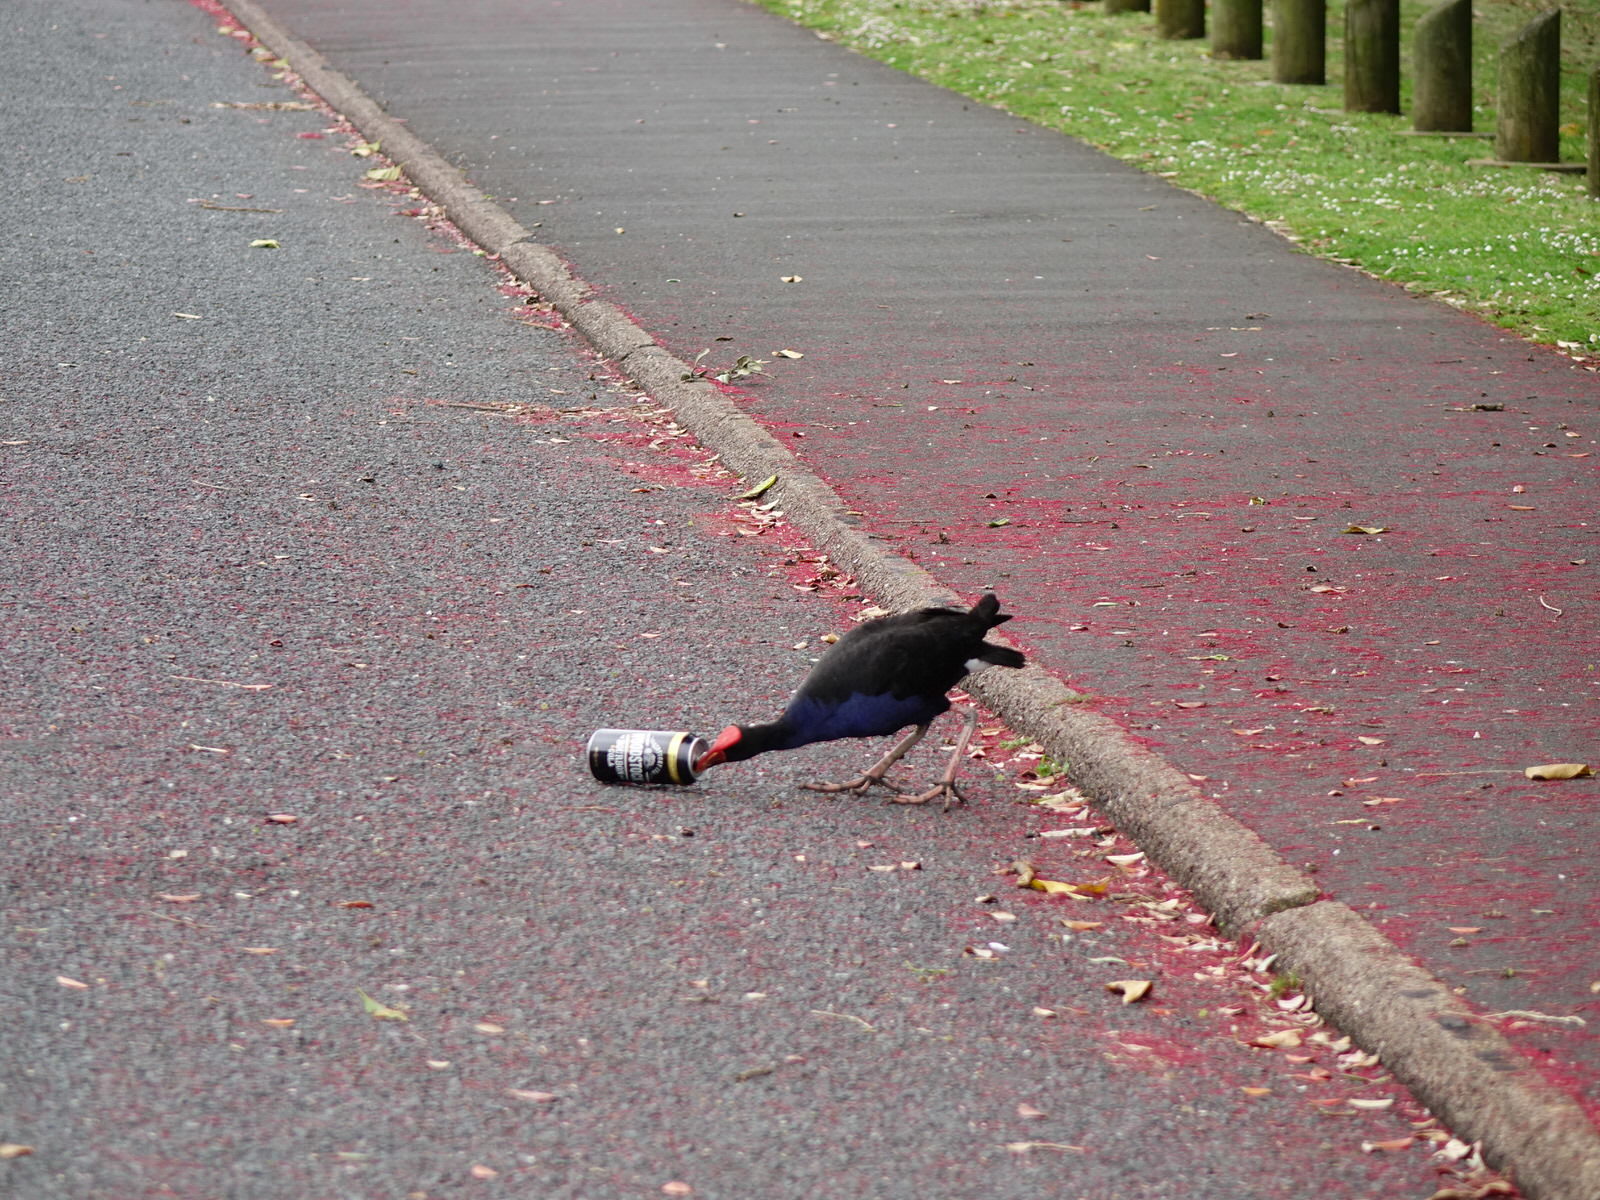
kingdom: Animalia
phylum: Chordata
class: Aves
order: Gruiformes
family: Rallidae
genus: Porphyrio
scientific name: Porphyrio melanotus
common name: Australasian swamphen
